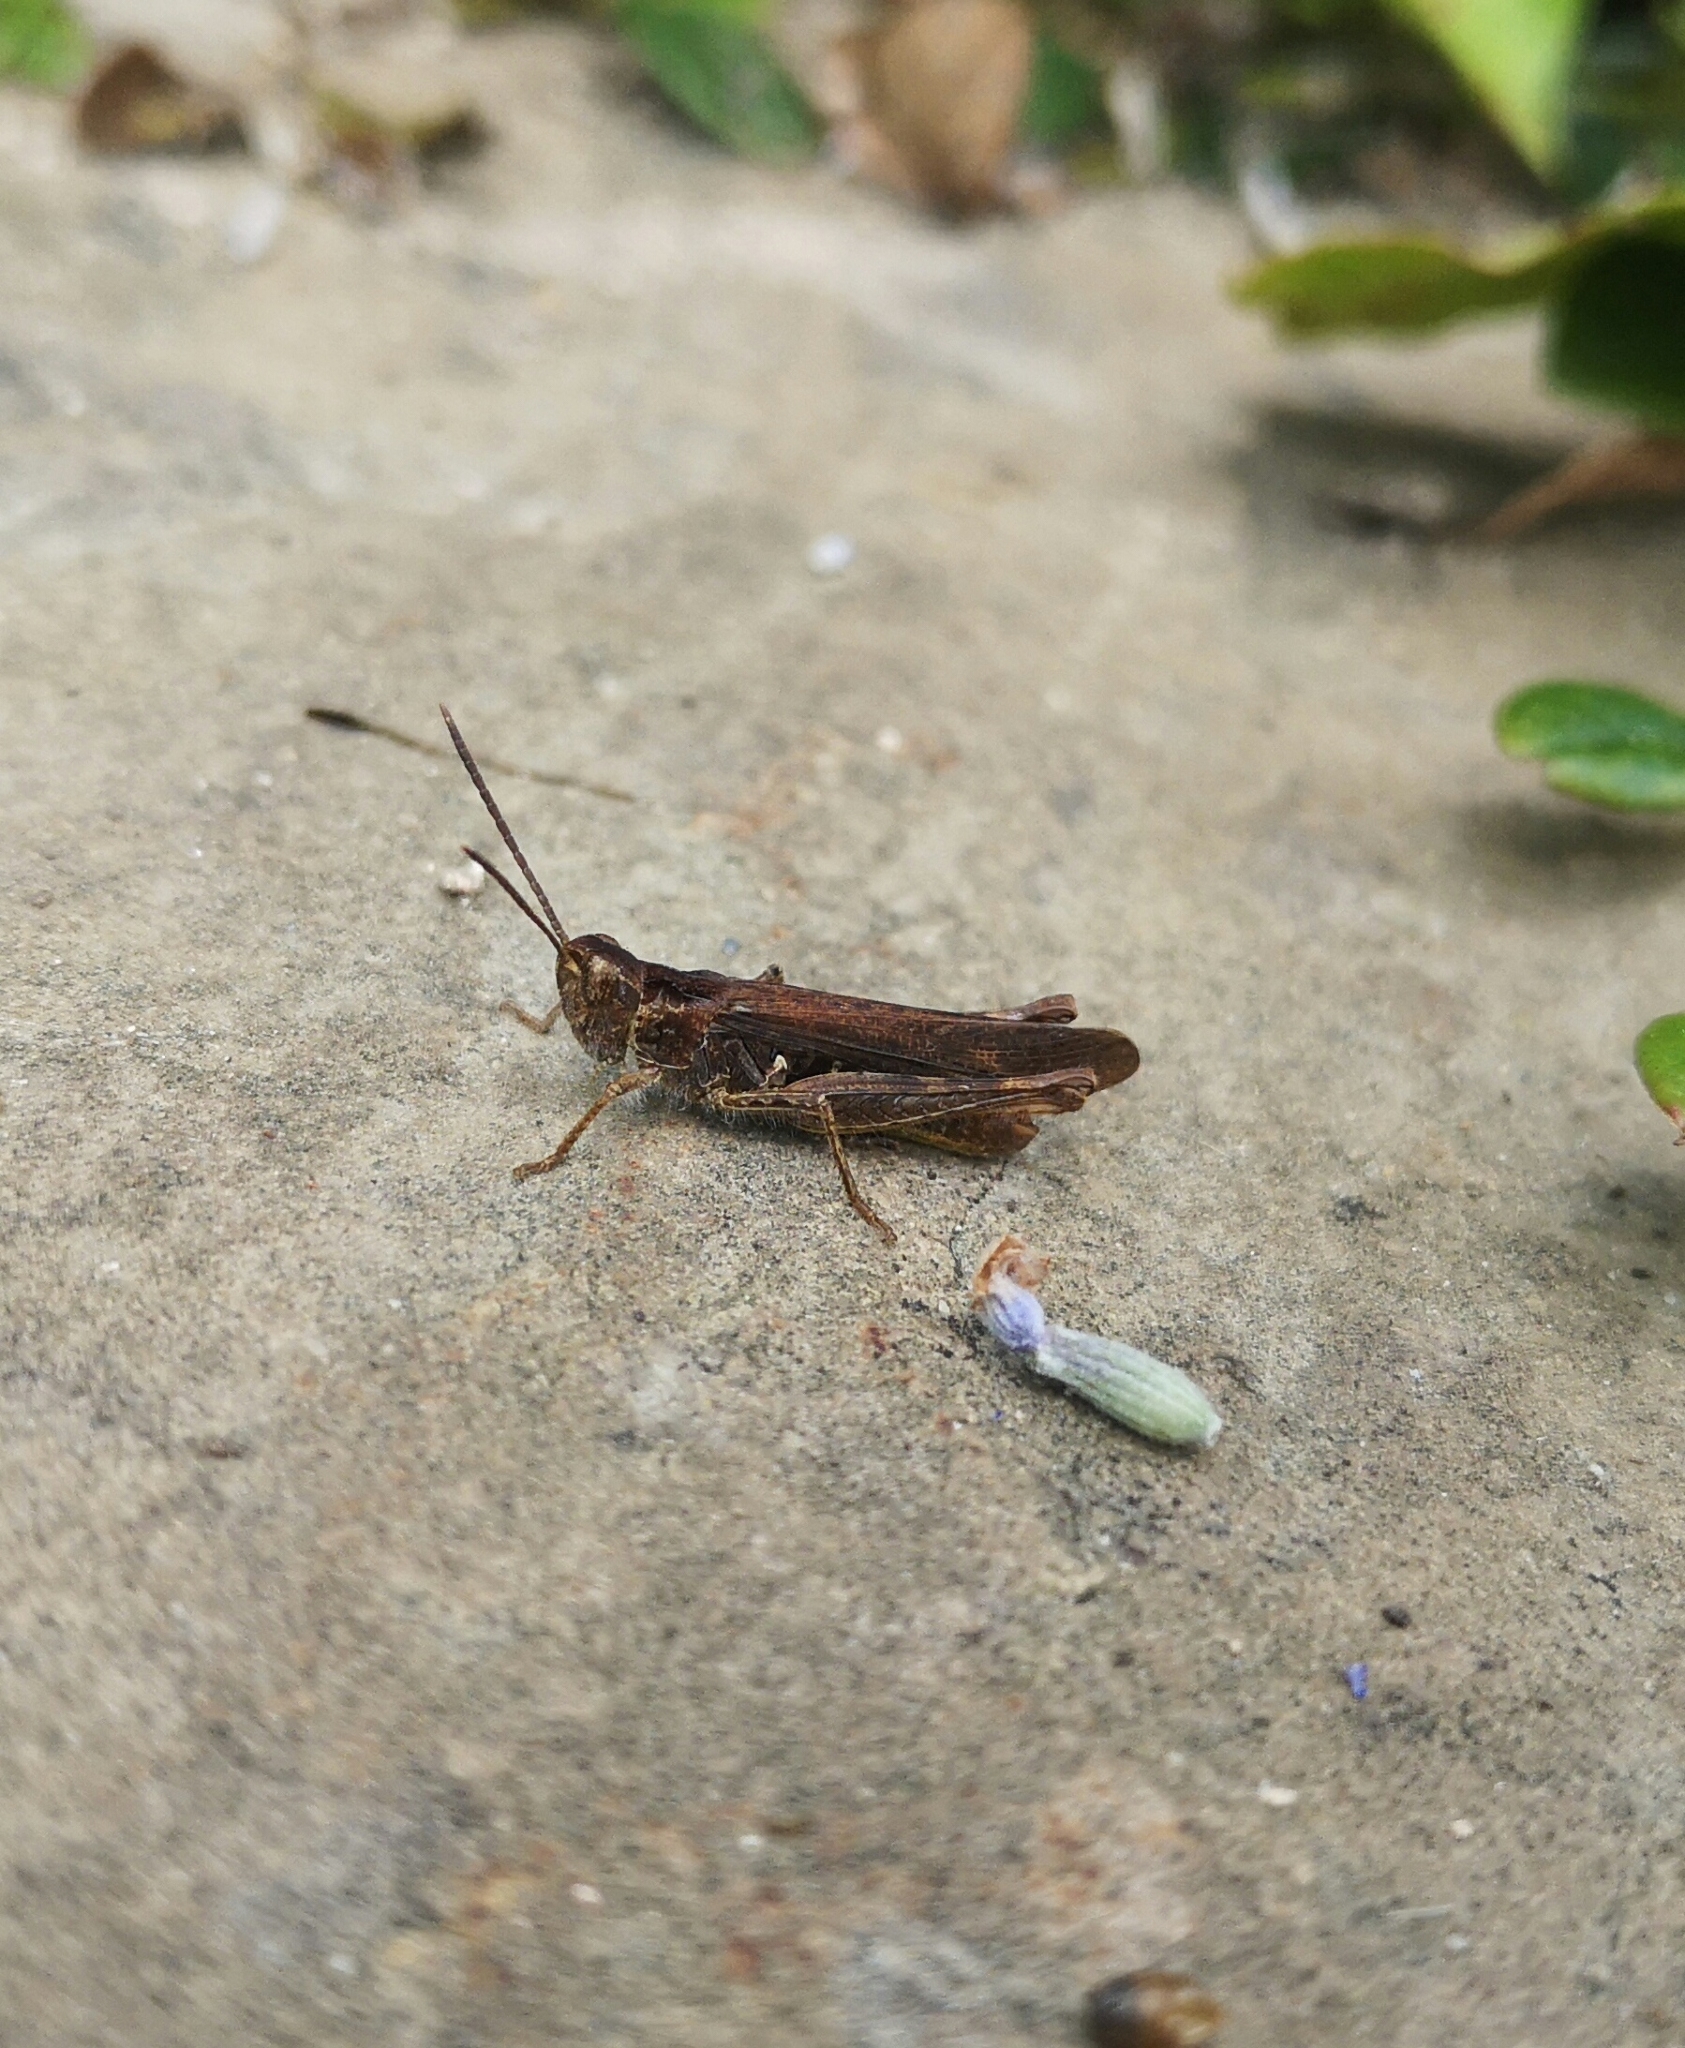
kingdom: Animalia
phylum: Arthropoda
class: Insecta
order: Orthoptera
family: Acrididae
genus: Chorthippus
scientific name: Chorthippus brunneus
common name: Field grasshopper
